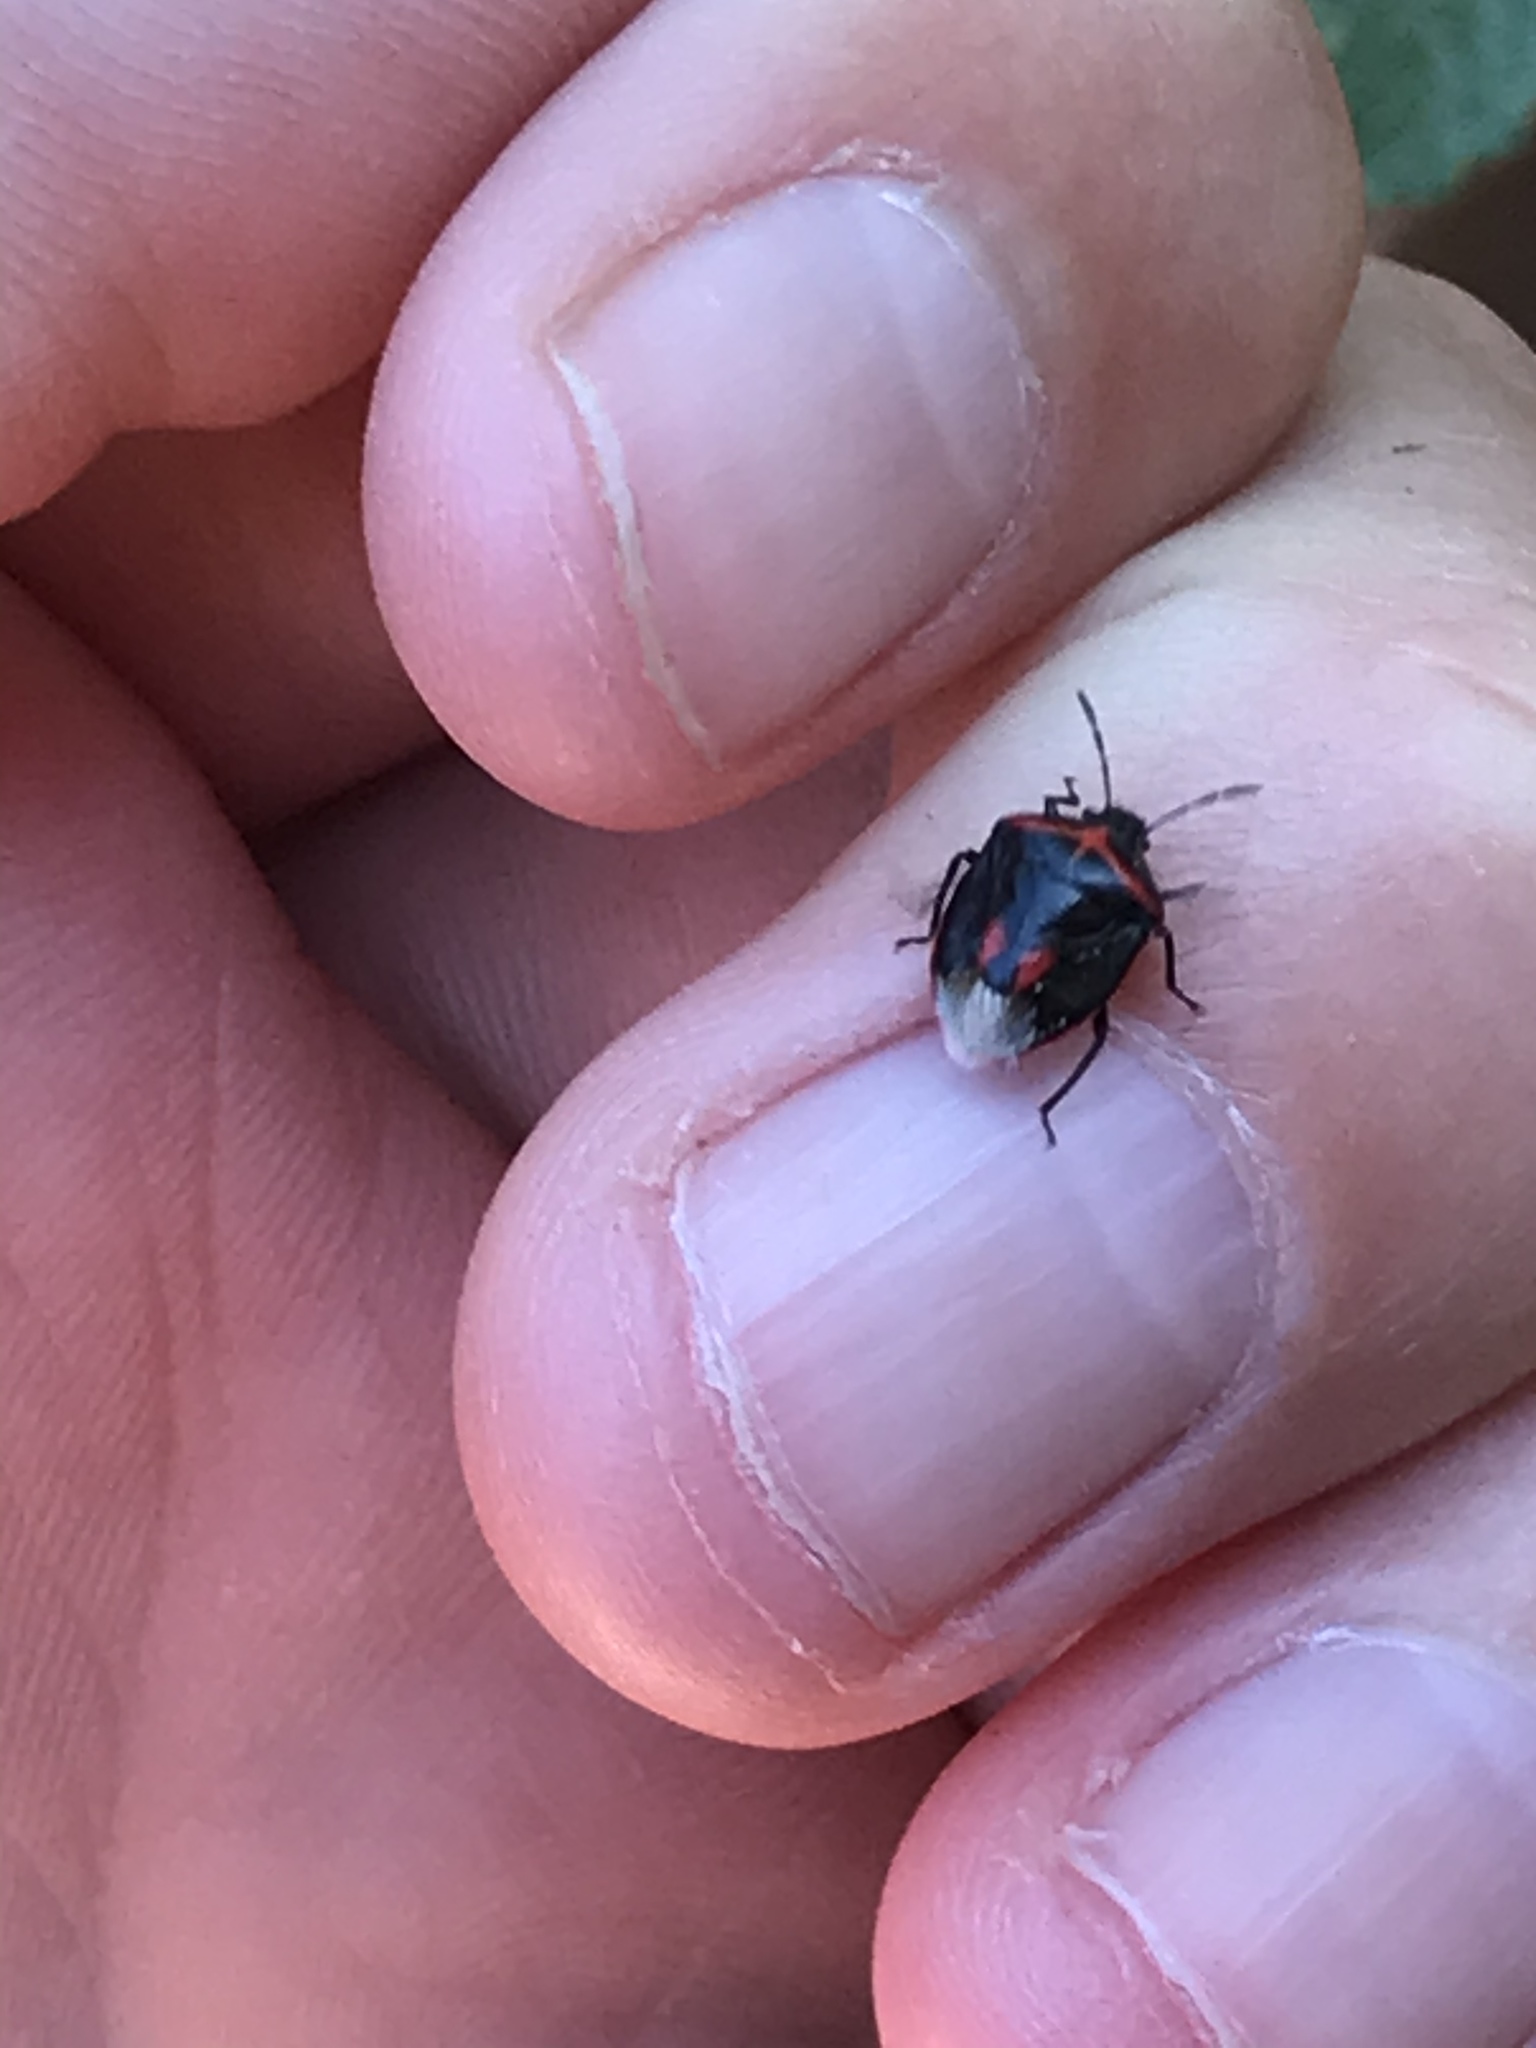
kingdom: Animalia
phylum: Arthropoda
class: Insecta
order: Hemiptera
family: Pentatomidae
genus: Cosmopepla
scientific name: Cosmopepla lintneriana
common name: Twice-stabbed stink bug
